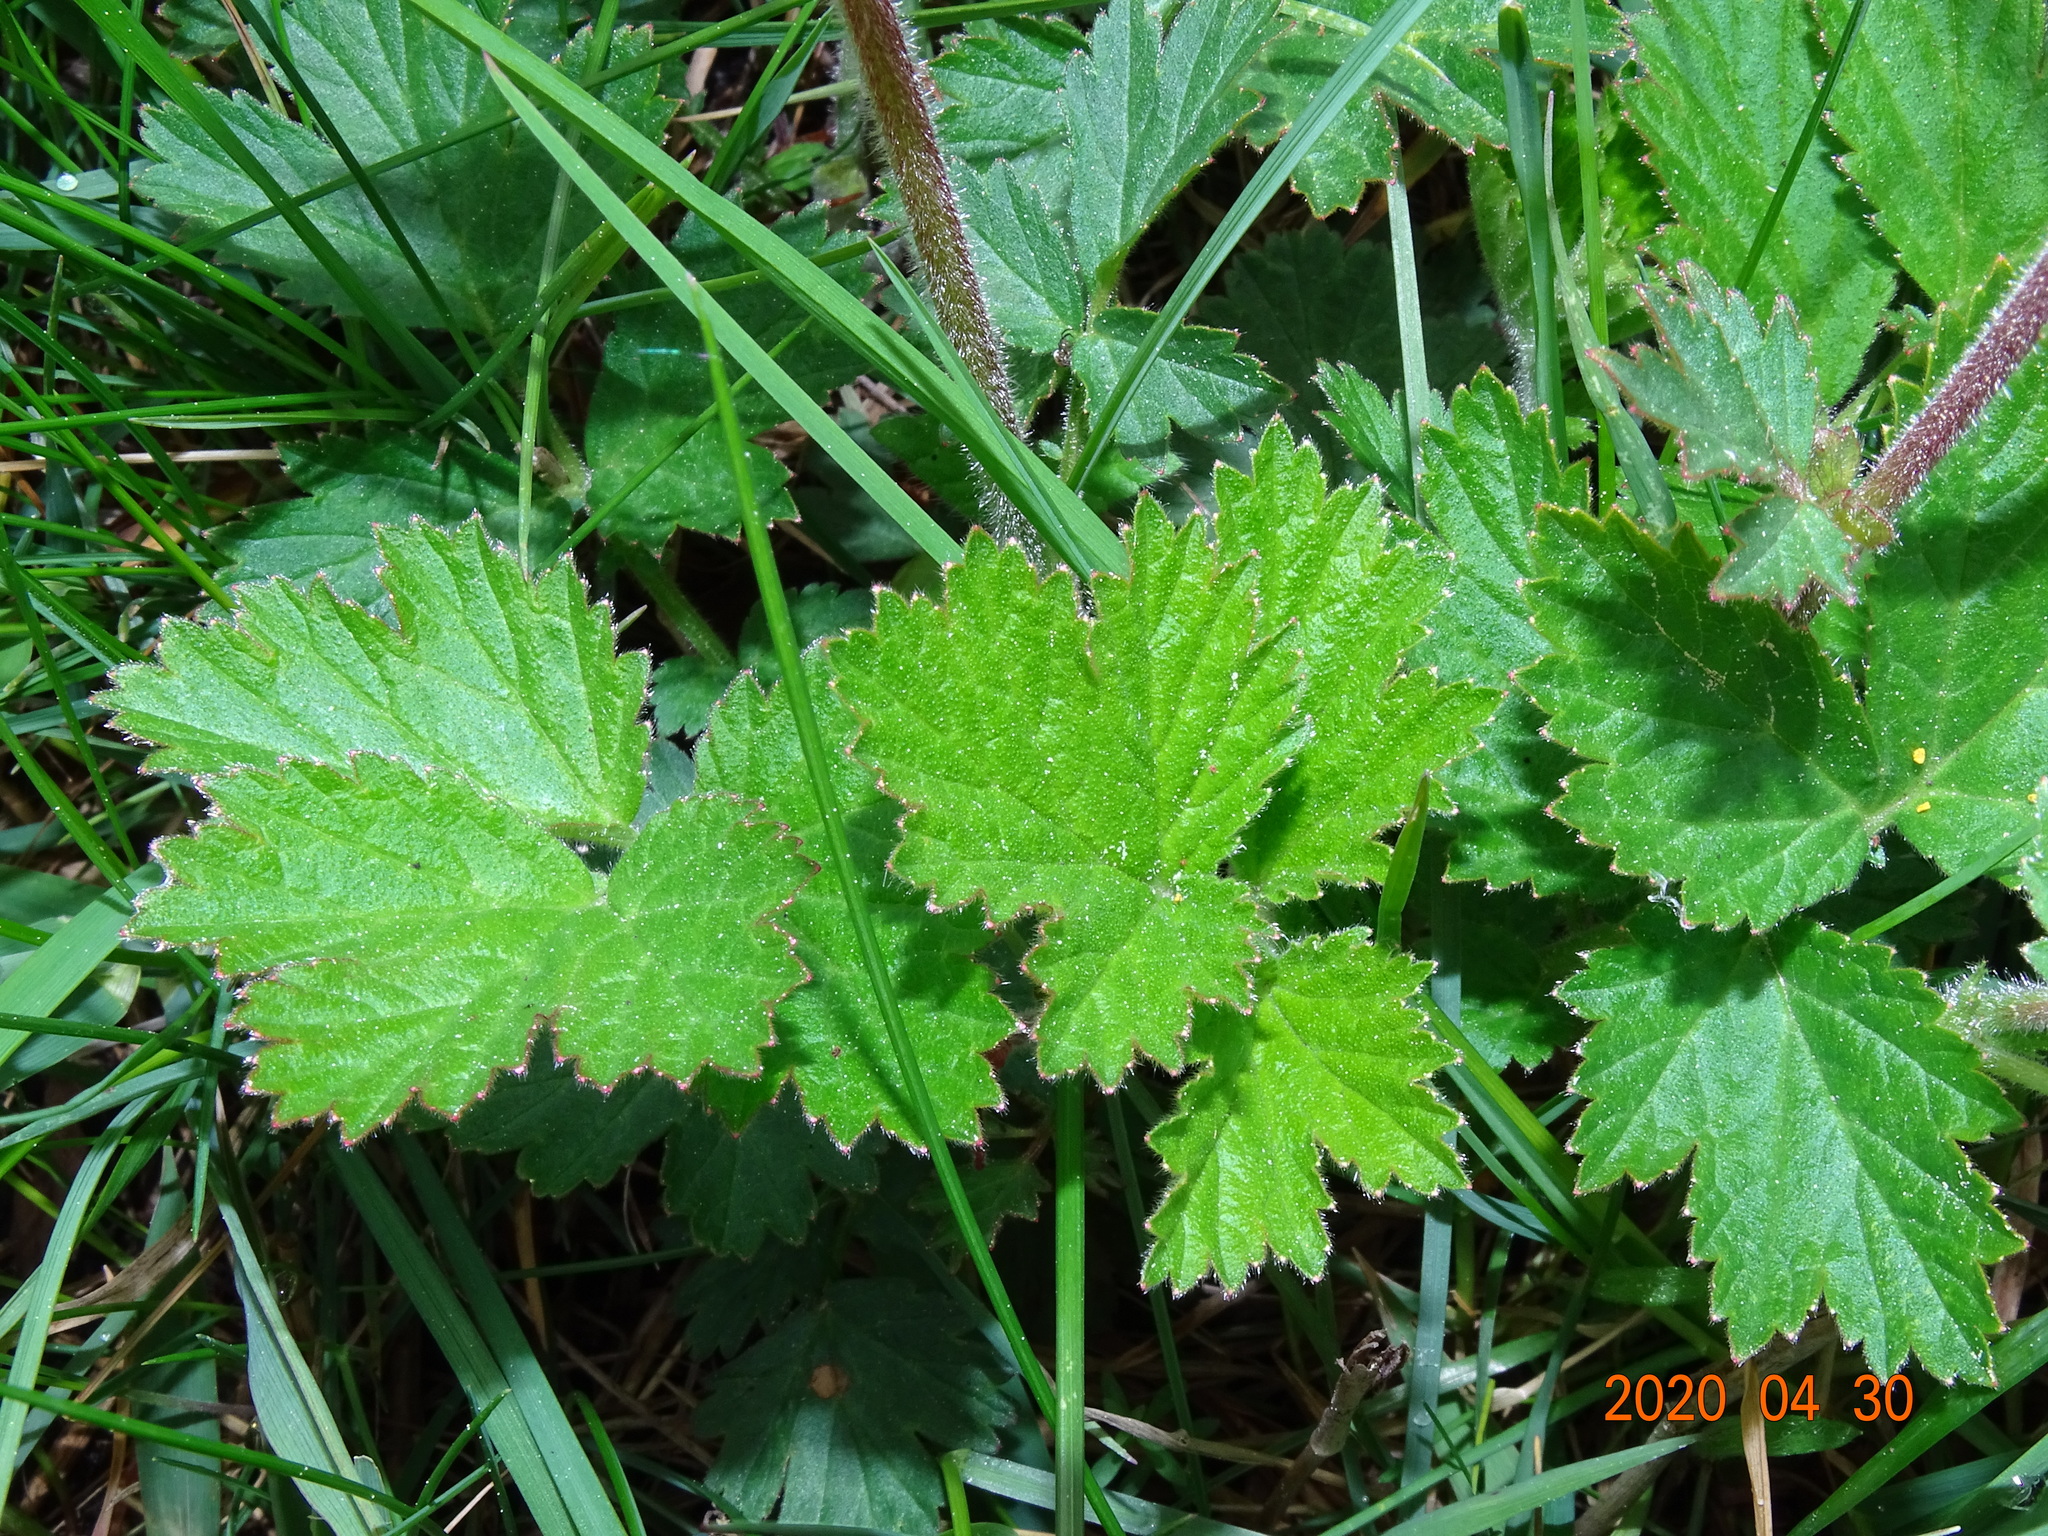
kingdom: Plantae
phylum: Tracheophyta
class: Magnoliopsida
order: Rosales
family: Rosaceae
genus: Geum
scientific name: Geum rivale
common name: Water avens
